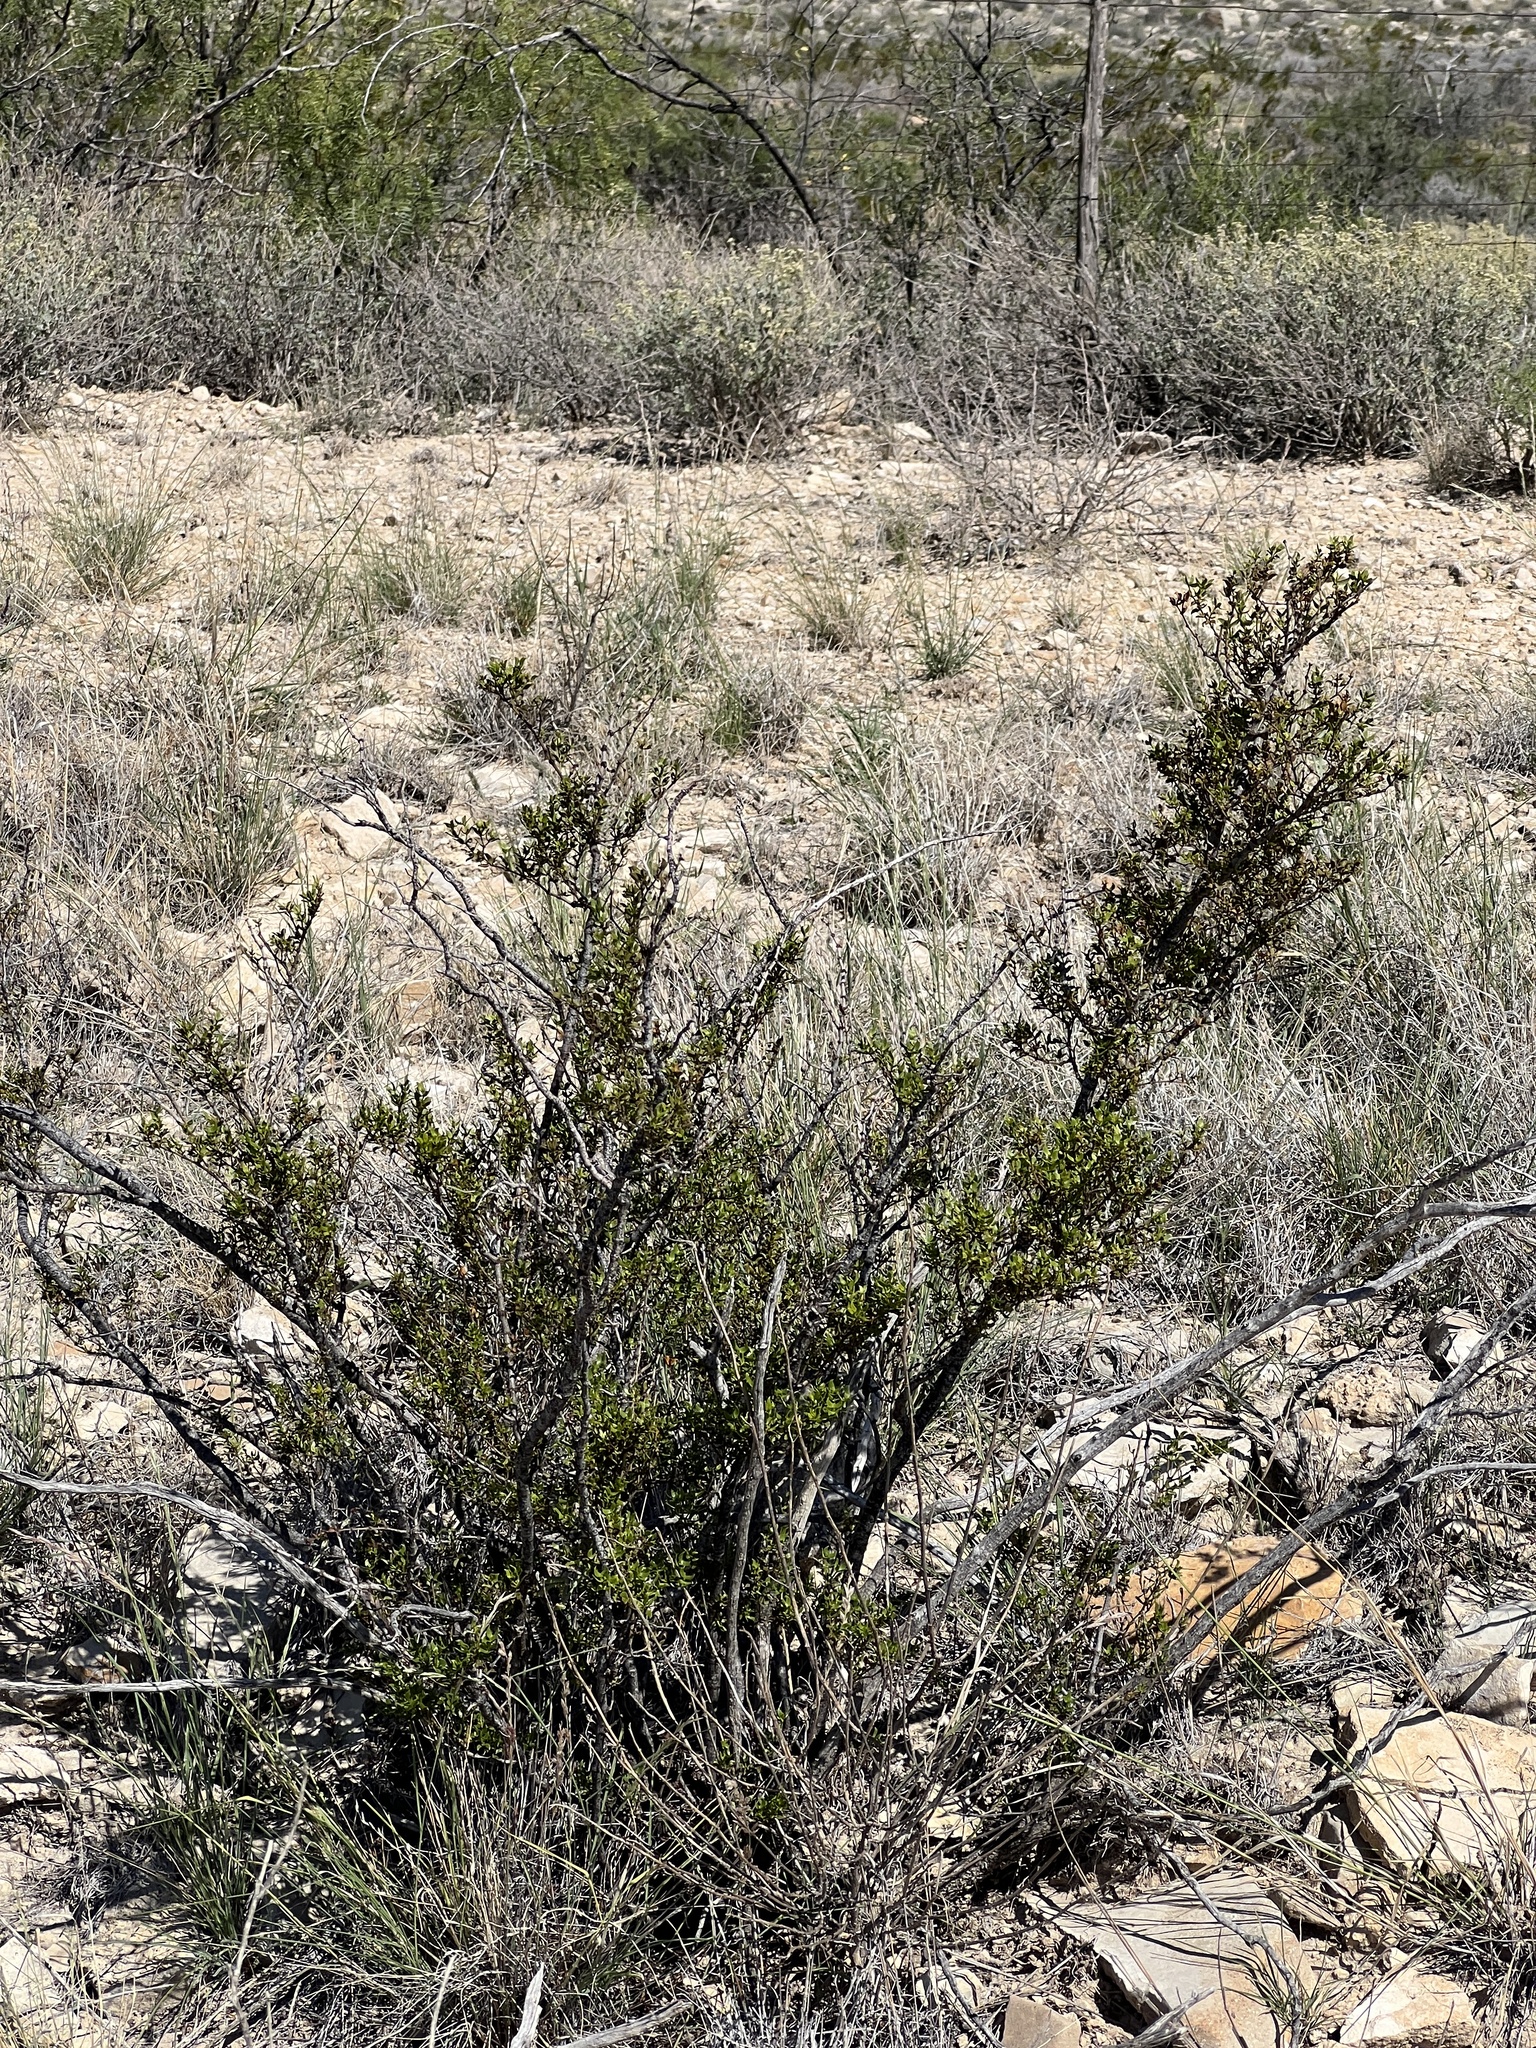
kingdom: Plantae
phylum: Tracheophyta
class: Magnoliopsida
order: Zygophyllales
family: Zygophyllaceae
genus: Larrea
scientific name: Larrea tridentata
